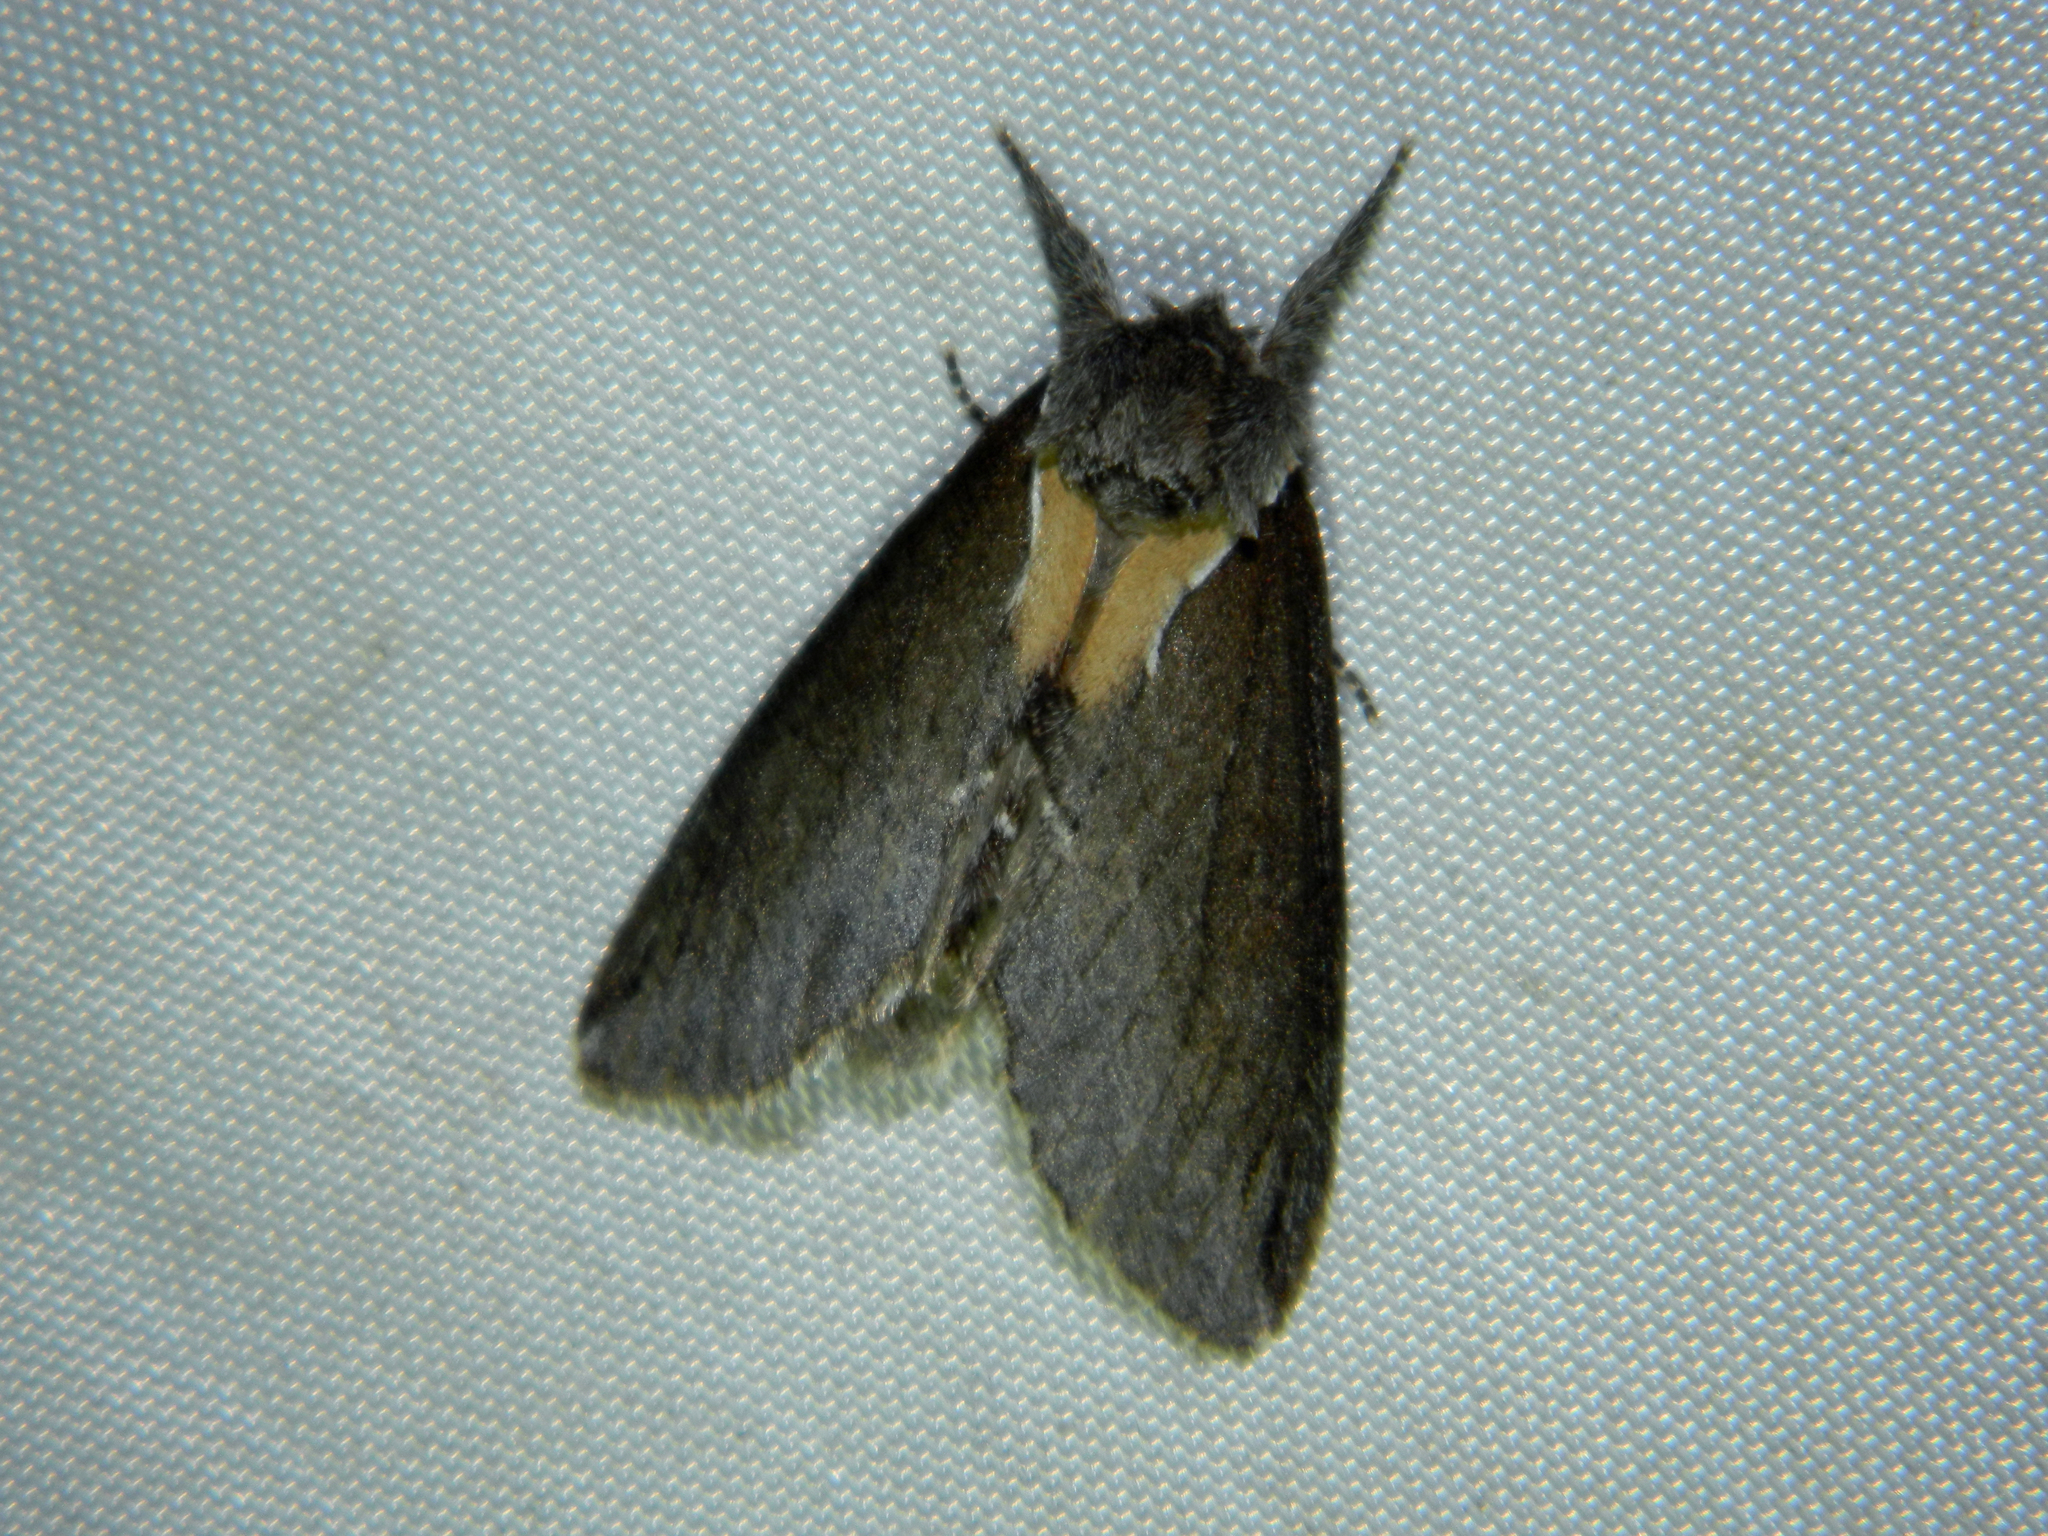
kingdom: Animalia
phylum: Arthropoda
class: Insecta
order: Lepidoptera
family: Notodontidae
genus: Pheosidea
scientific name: Pheosidea elegans
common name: Elegant prominent
